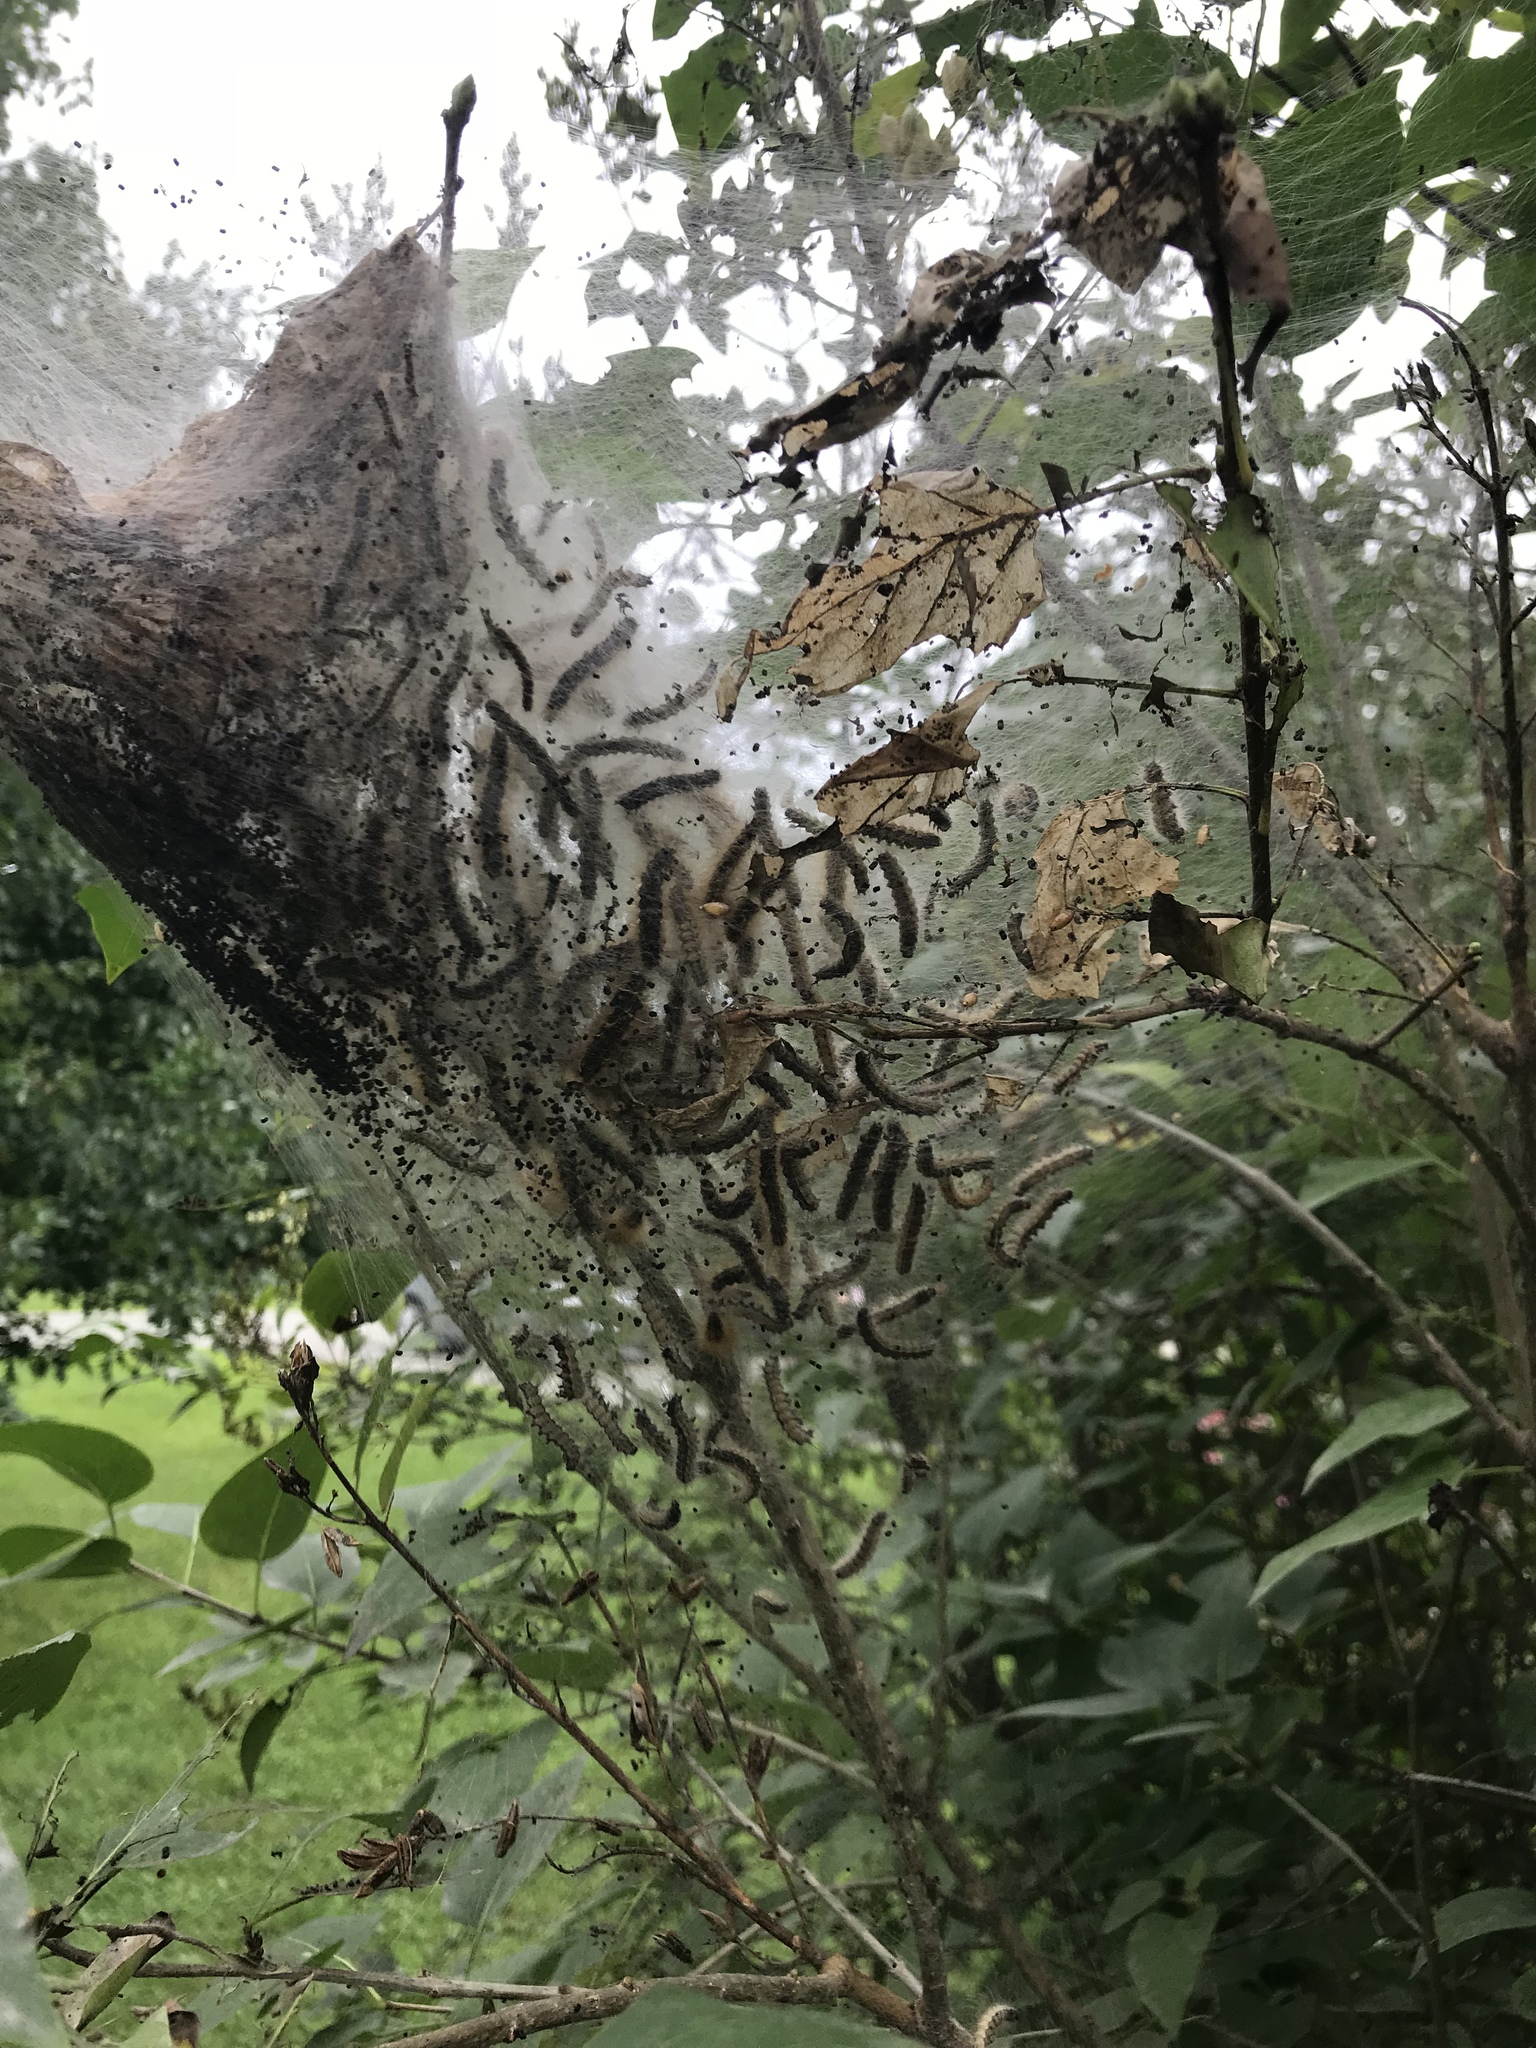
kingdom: Animalia
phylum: Arthropoda
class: Insecta
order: Lepidoptera
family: Erebidae
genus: Hyphantria
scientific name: Hyphantria cunea
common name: American white moth
